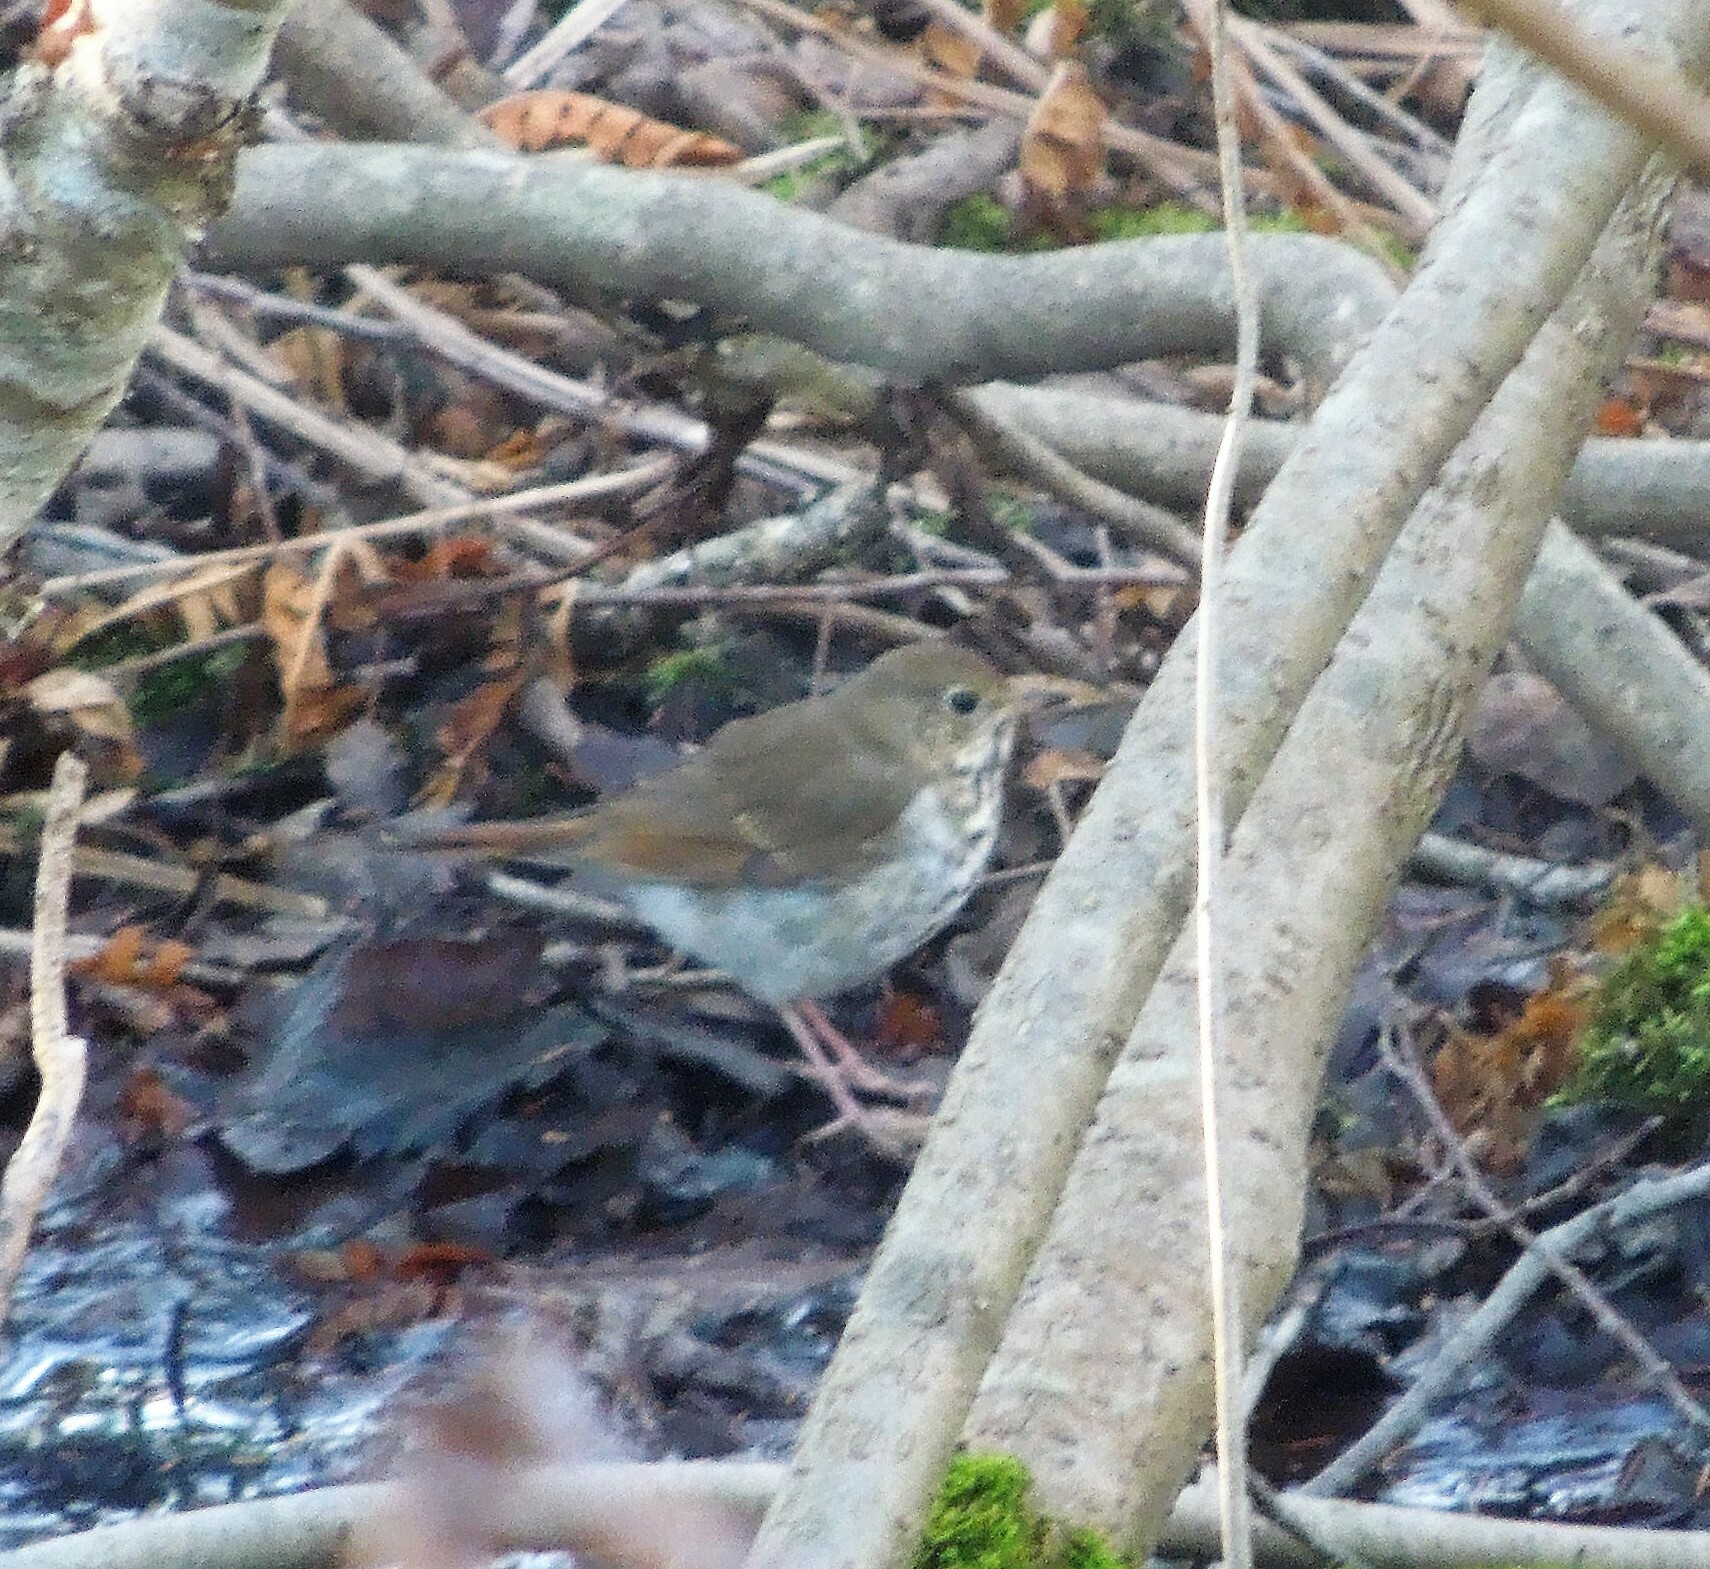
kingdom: Animalia
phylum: Chordata
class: Aves
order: Passeriformes
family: Turdidae
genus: Catharus
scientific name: Catharus guttatus
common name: Hermit thrush
